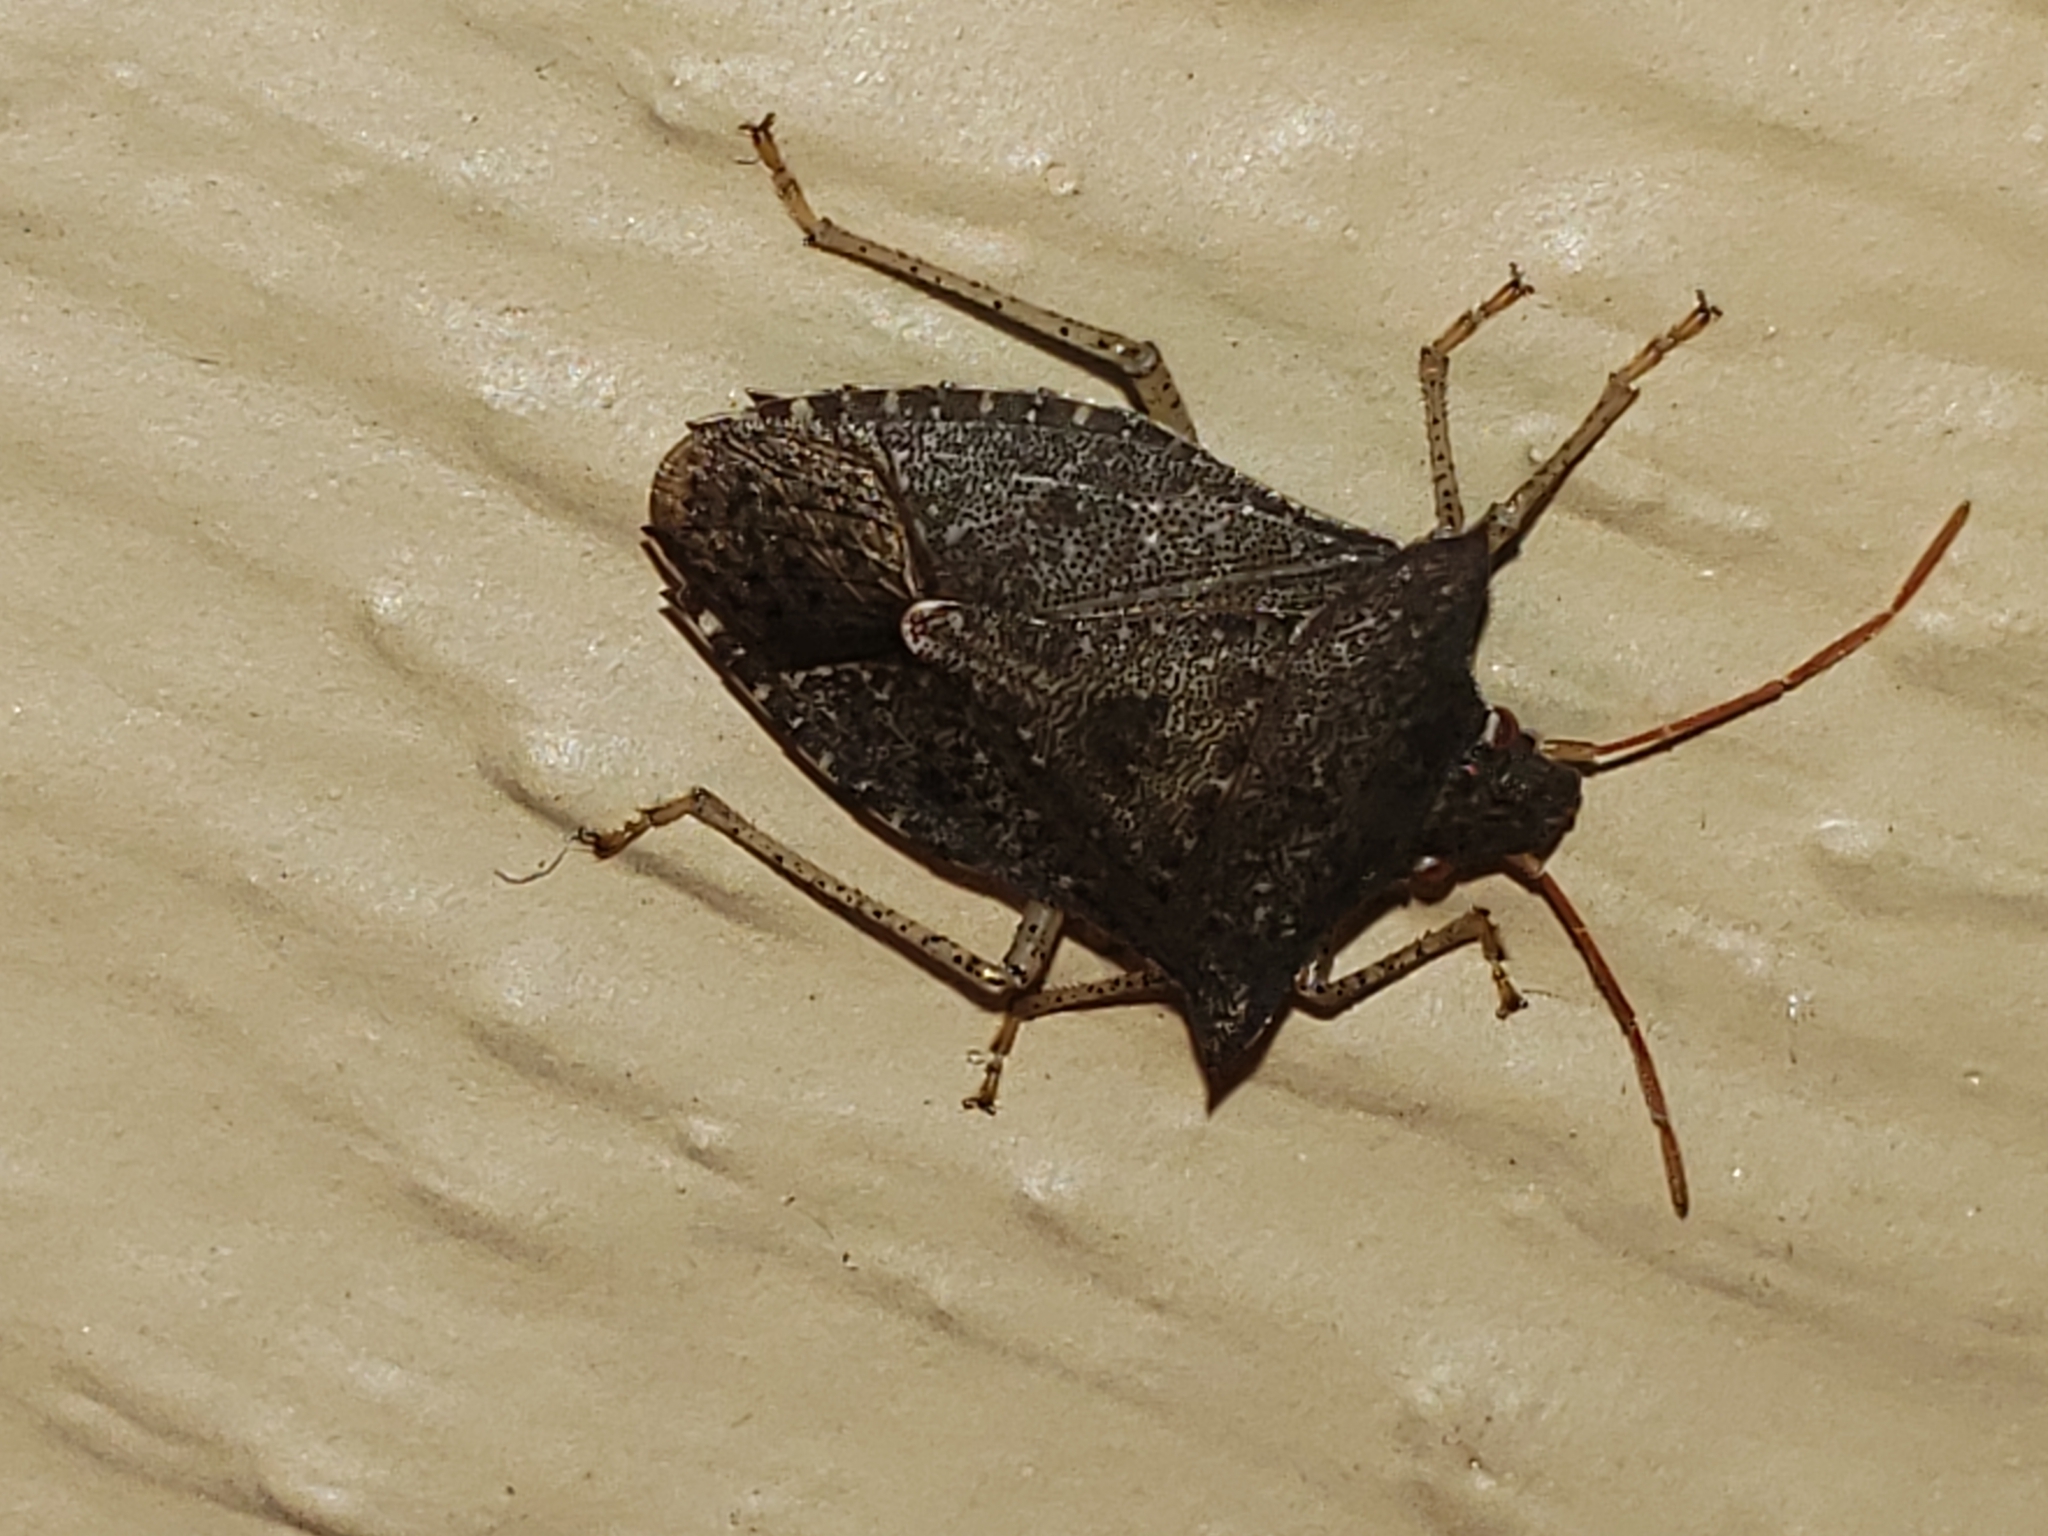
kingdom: Animalia
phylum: Arthropoda
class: Insecta
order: Hemiptera
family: Pentatomidae
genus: Euschistus
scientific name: Euschistus tristigmus
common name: Dusky stink bug
